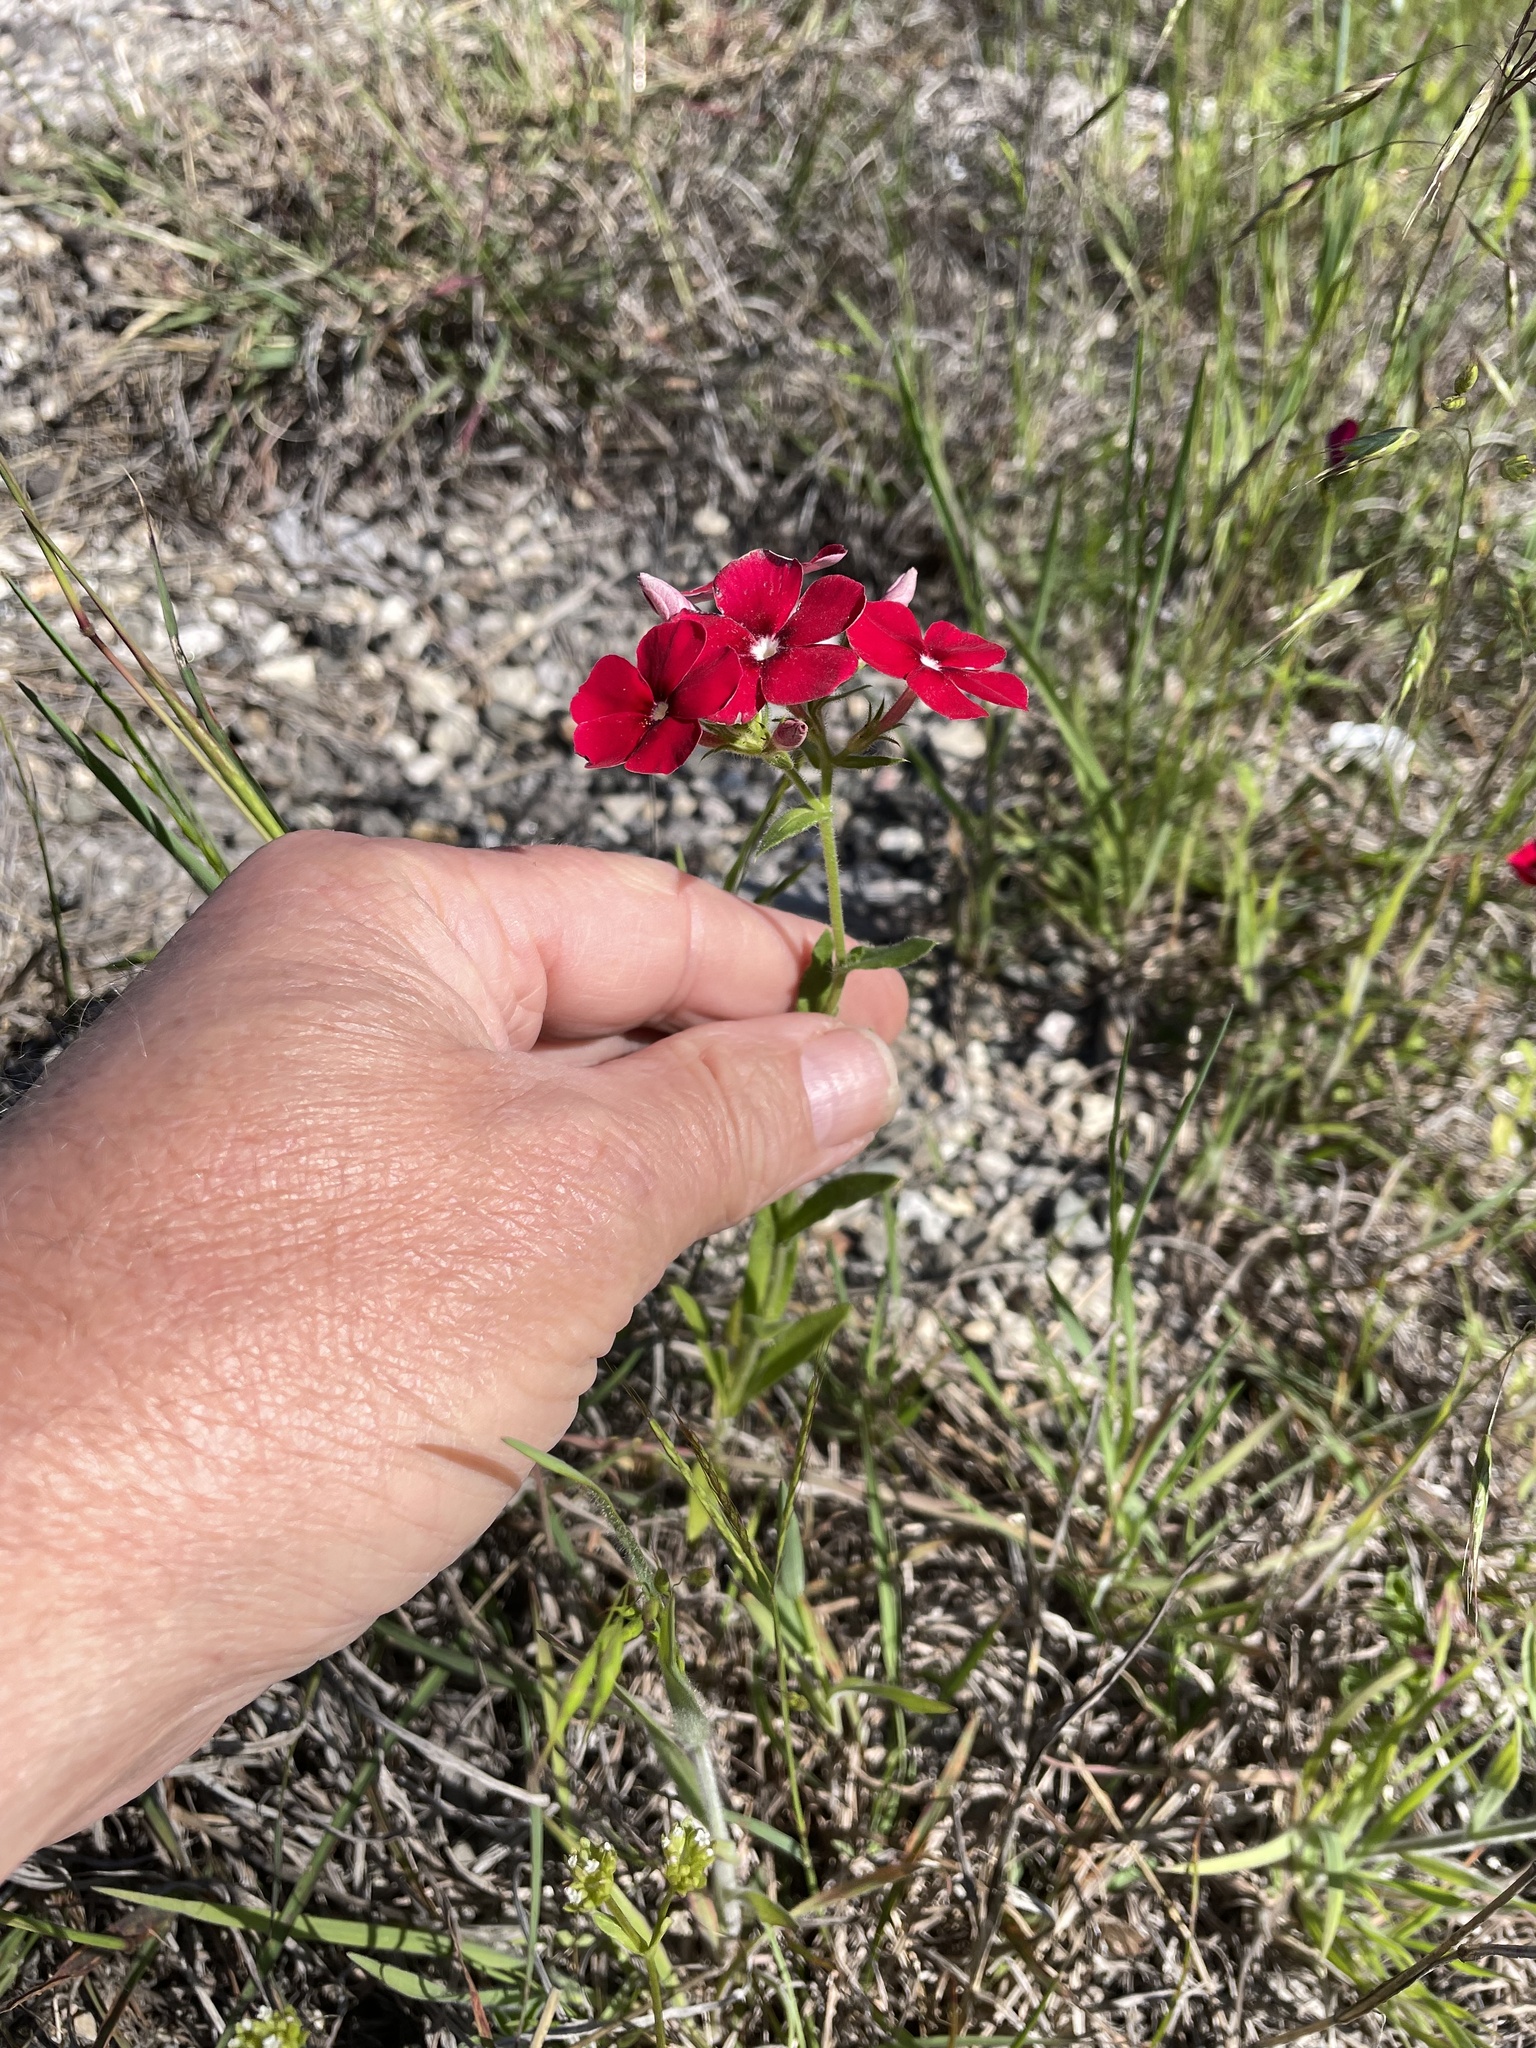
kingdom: Plantae
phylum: Tracheophyta
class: Magnoliopsida
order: Ericales
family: Polemoniaceae
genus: Phlox
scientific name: Phlox drummondii
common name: Drummond's phlox
